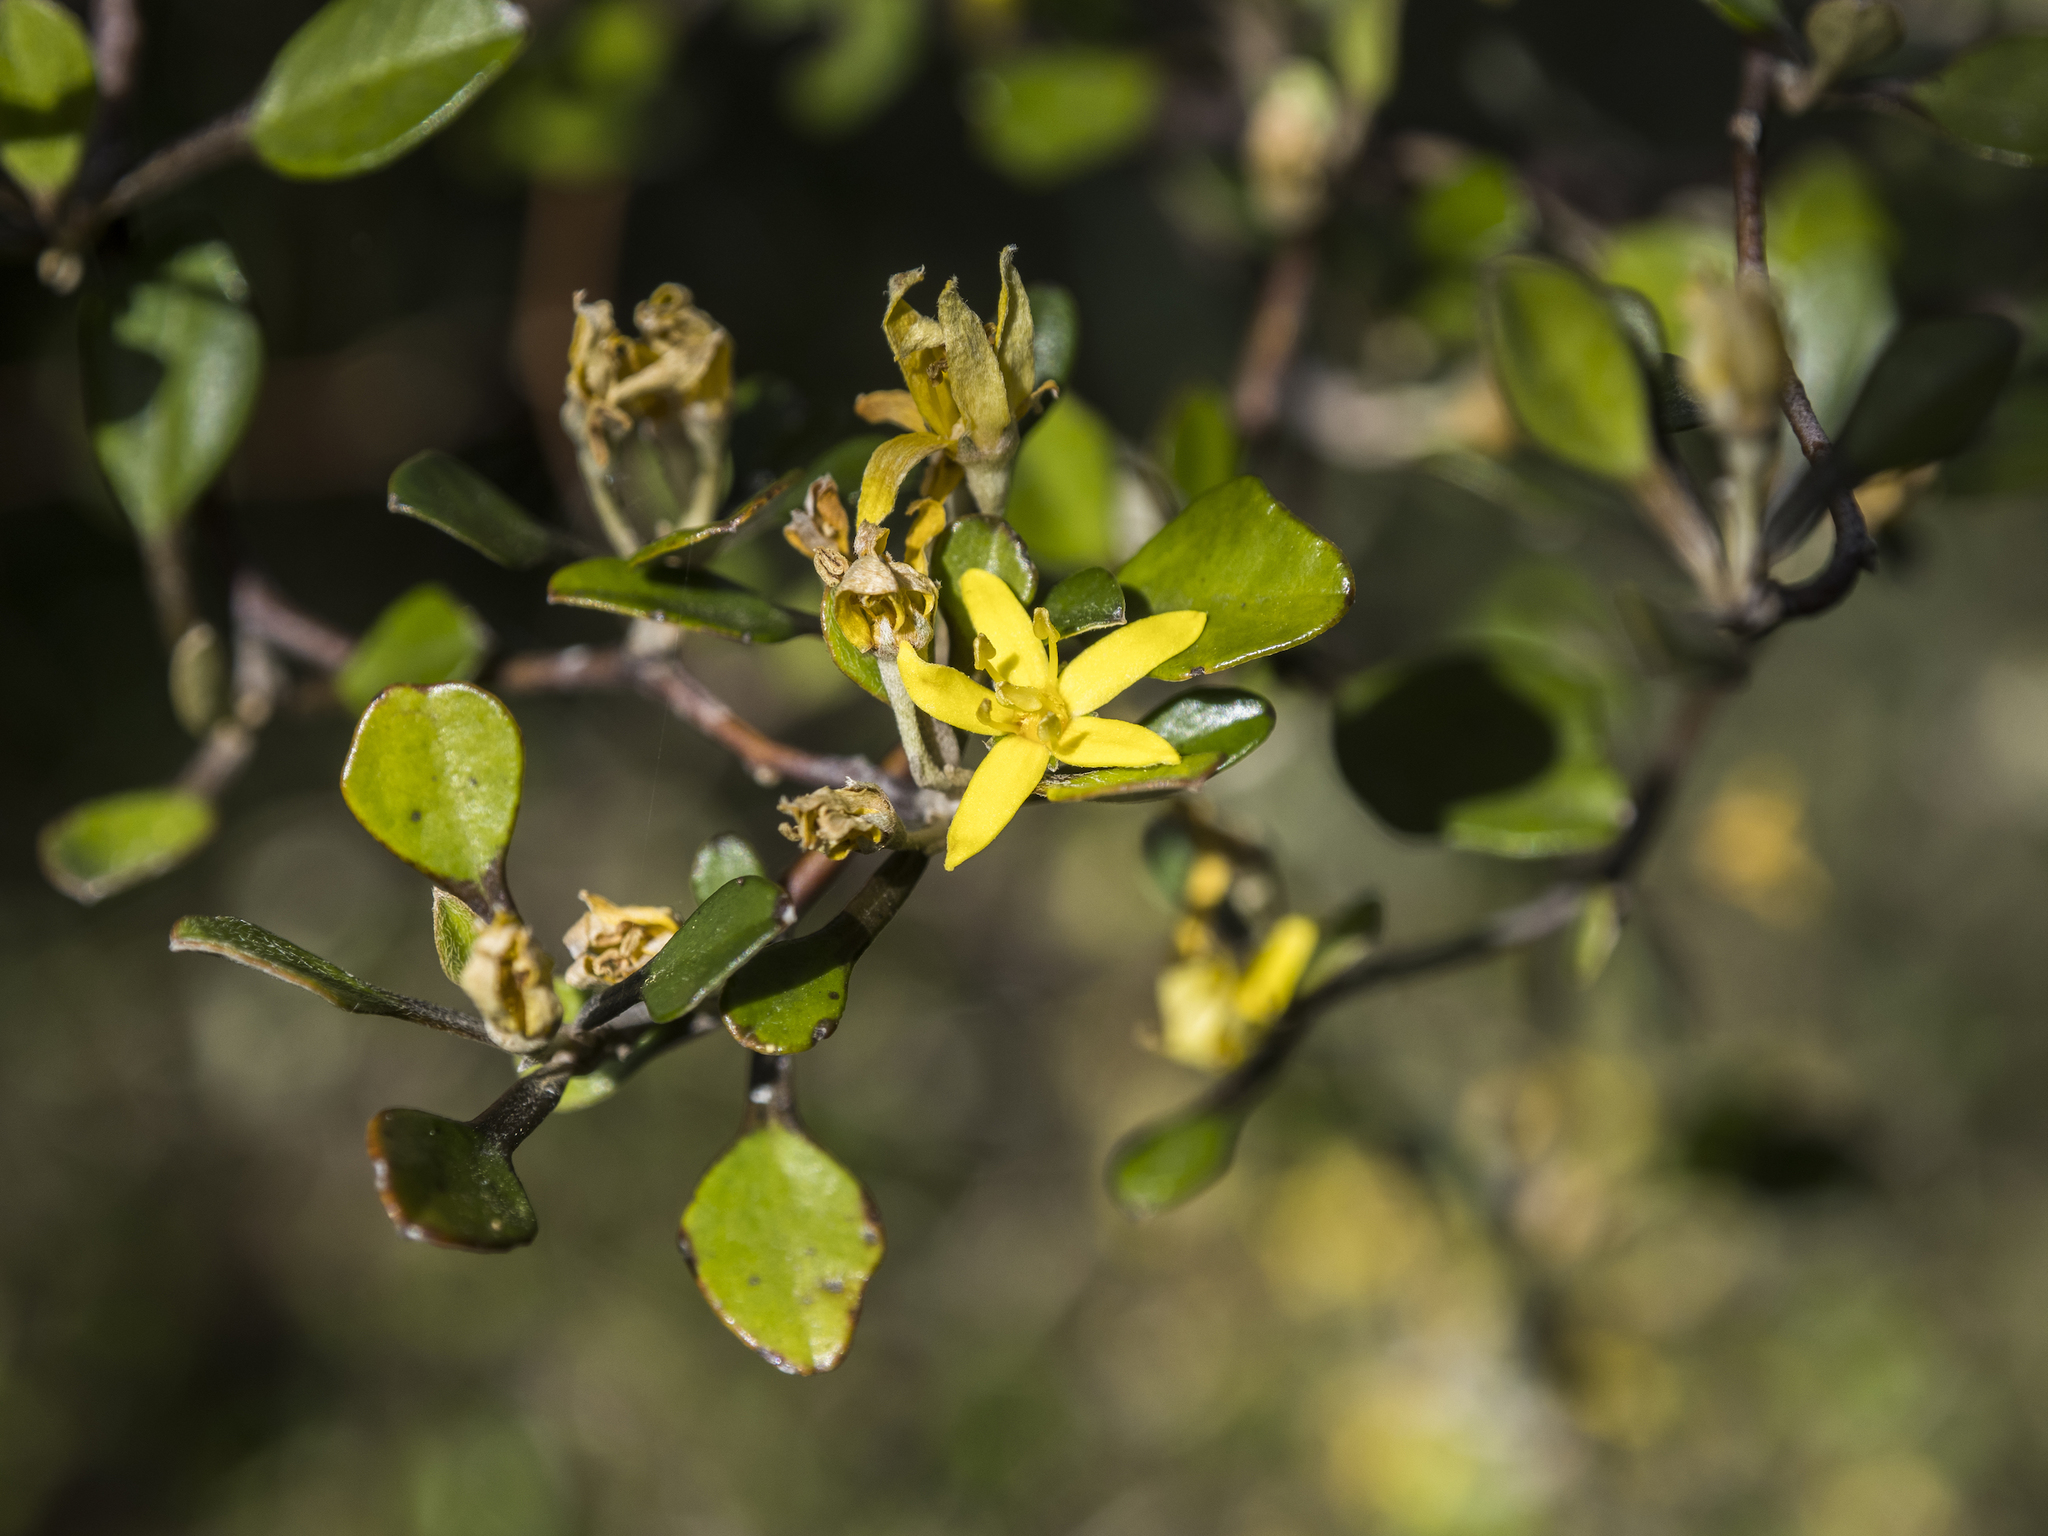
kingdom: Plantae
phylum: Tracheophyta
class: Magnoliopsida
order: Asterales
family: Argophyllaceae
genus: Corokia
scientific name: Corokia cotoneaster
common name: Wire nettingbush
